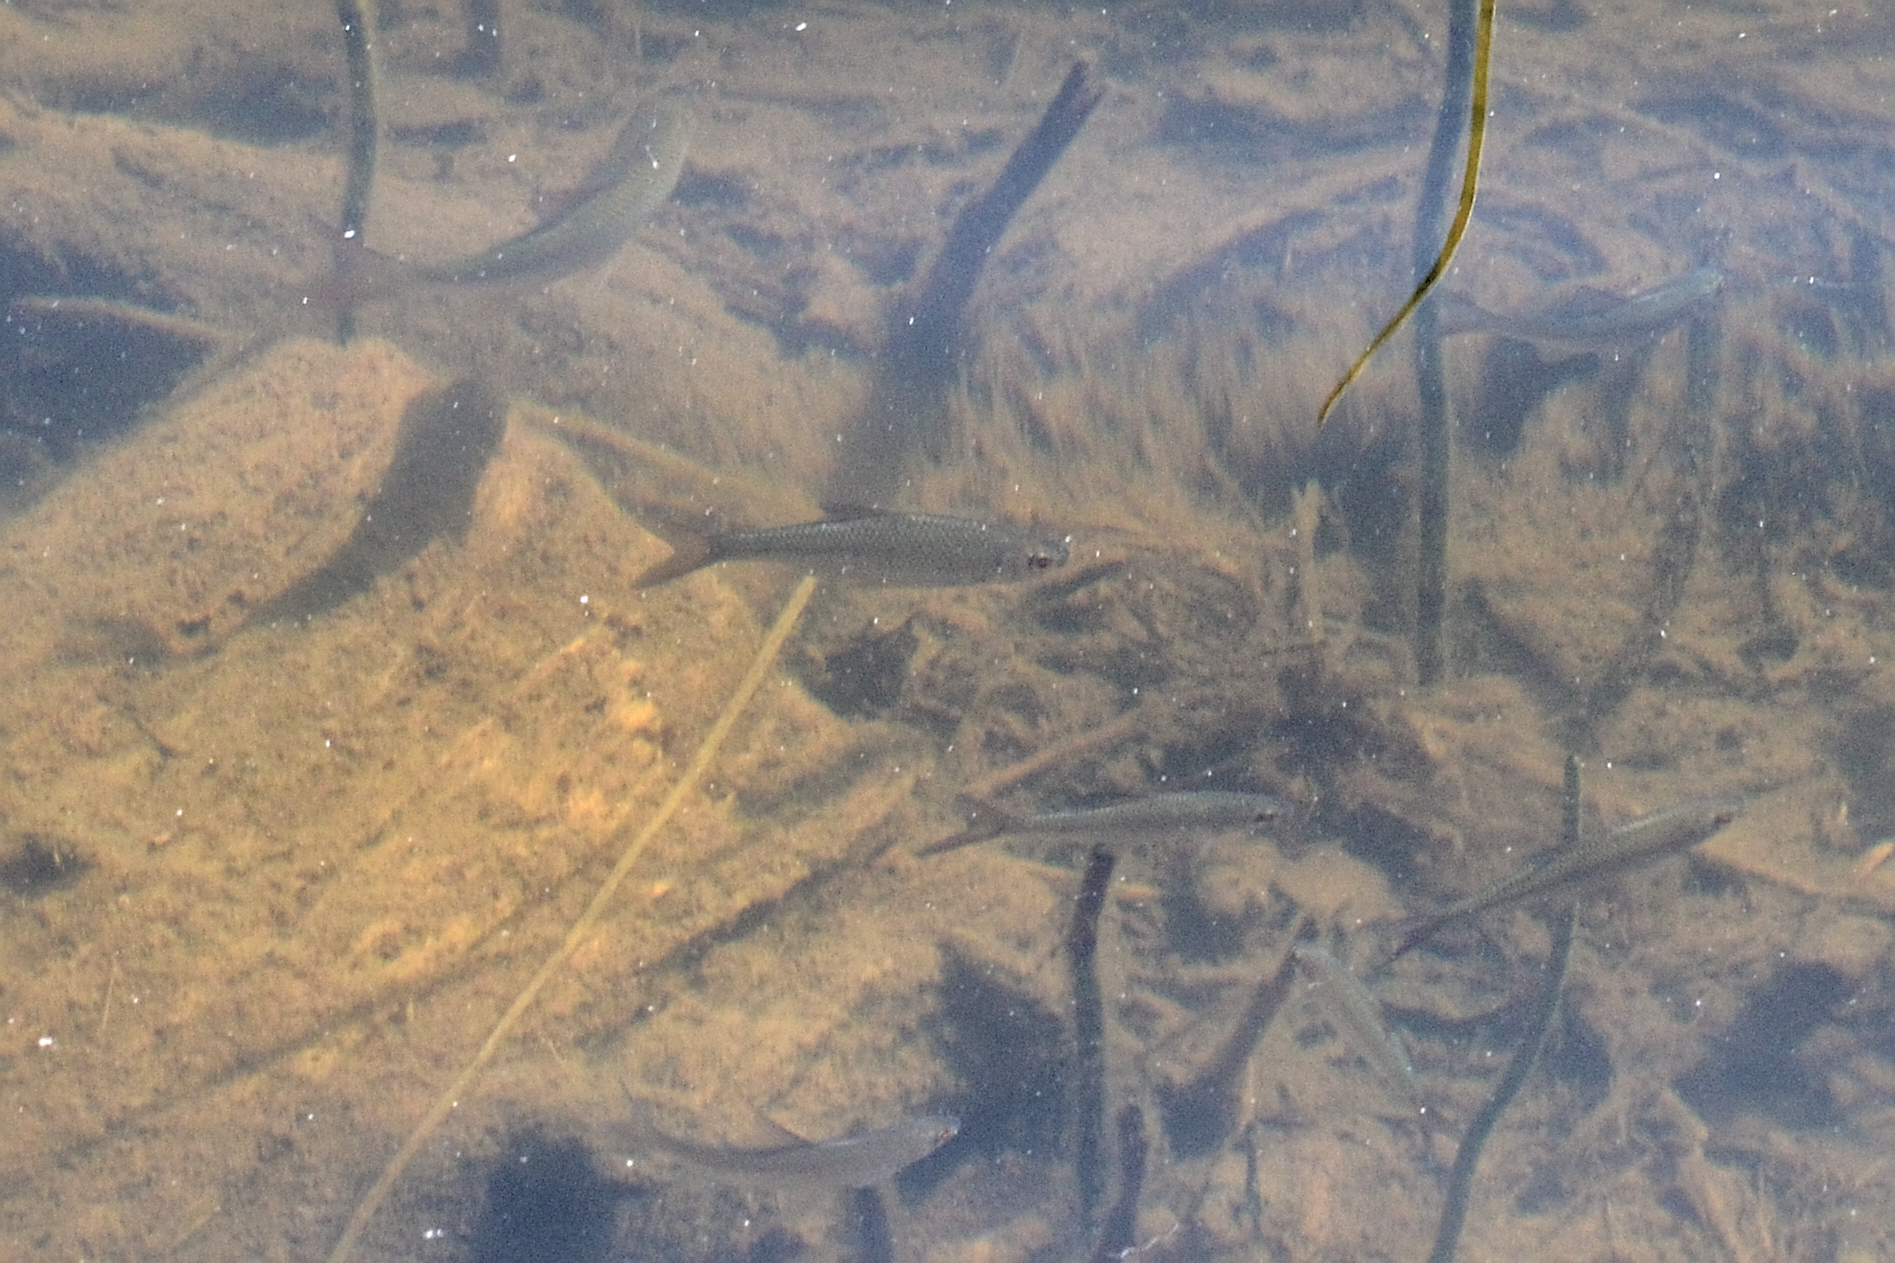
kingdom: Animalia
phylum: Chordata
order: Cypriniformes
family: Cyprinidae
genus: Rutilus
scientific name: Rutilus rutilus
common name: Roach
